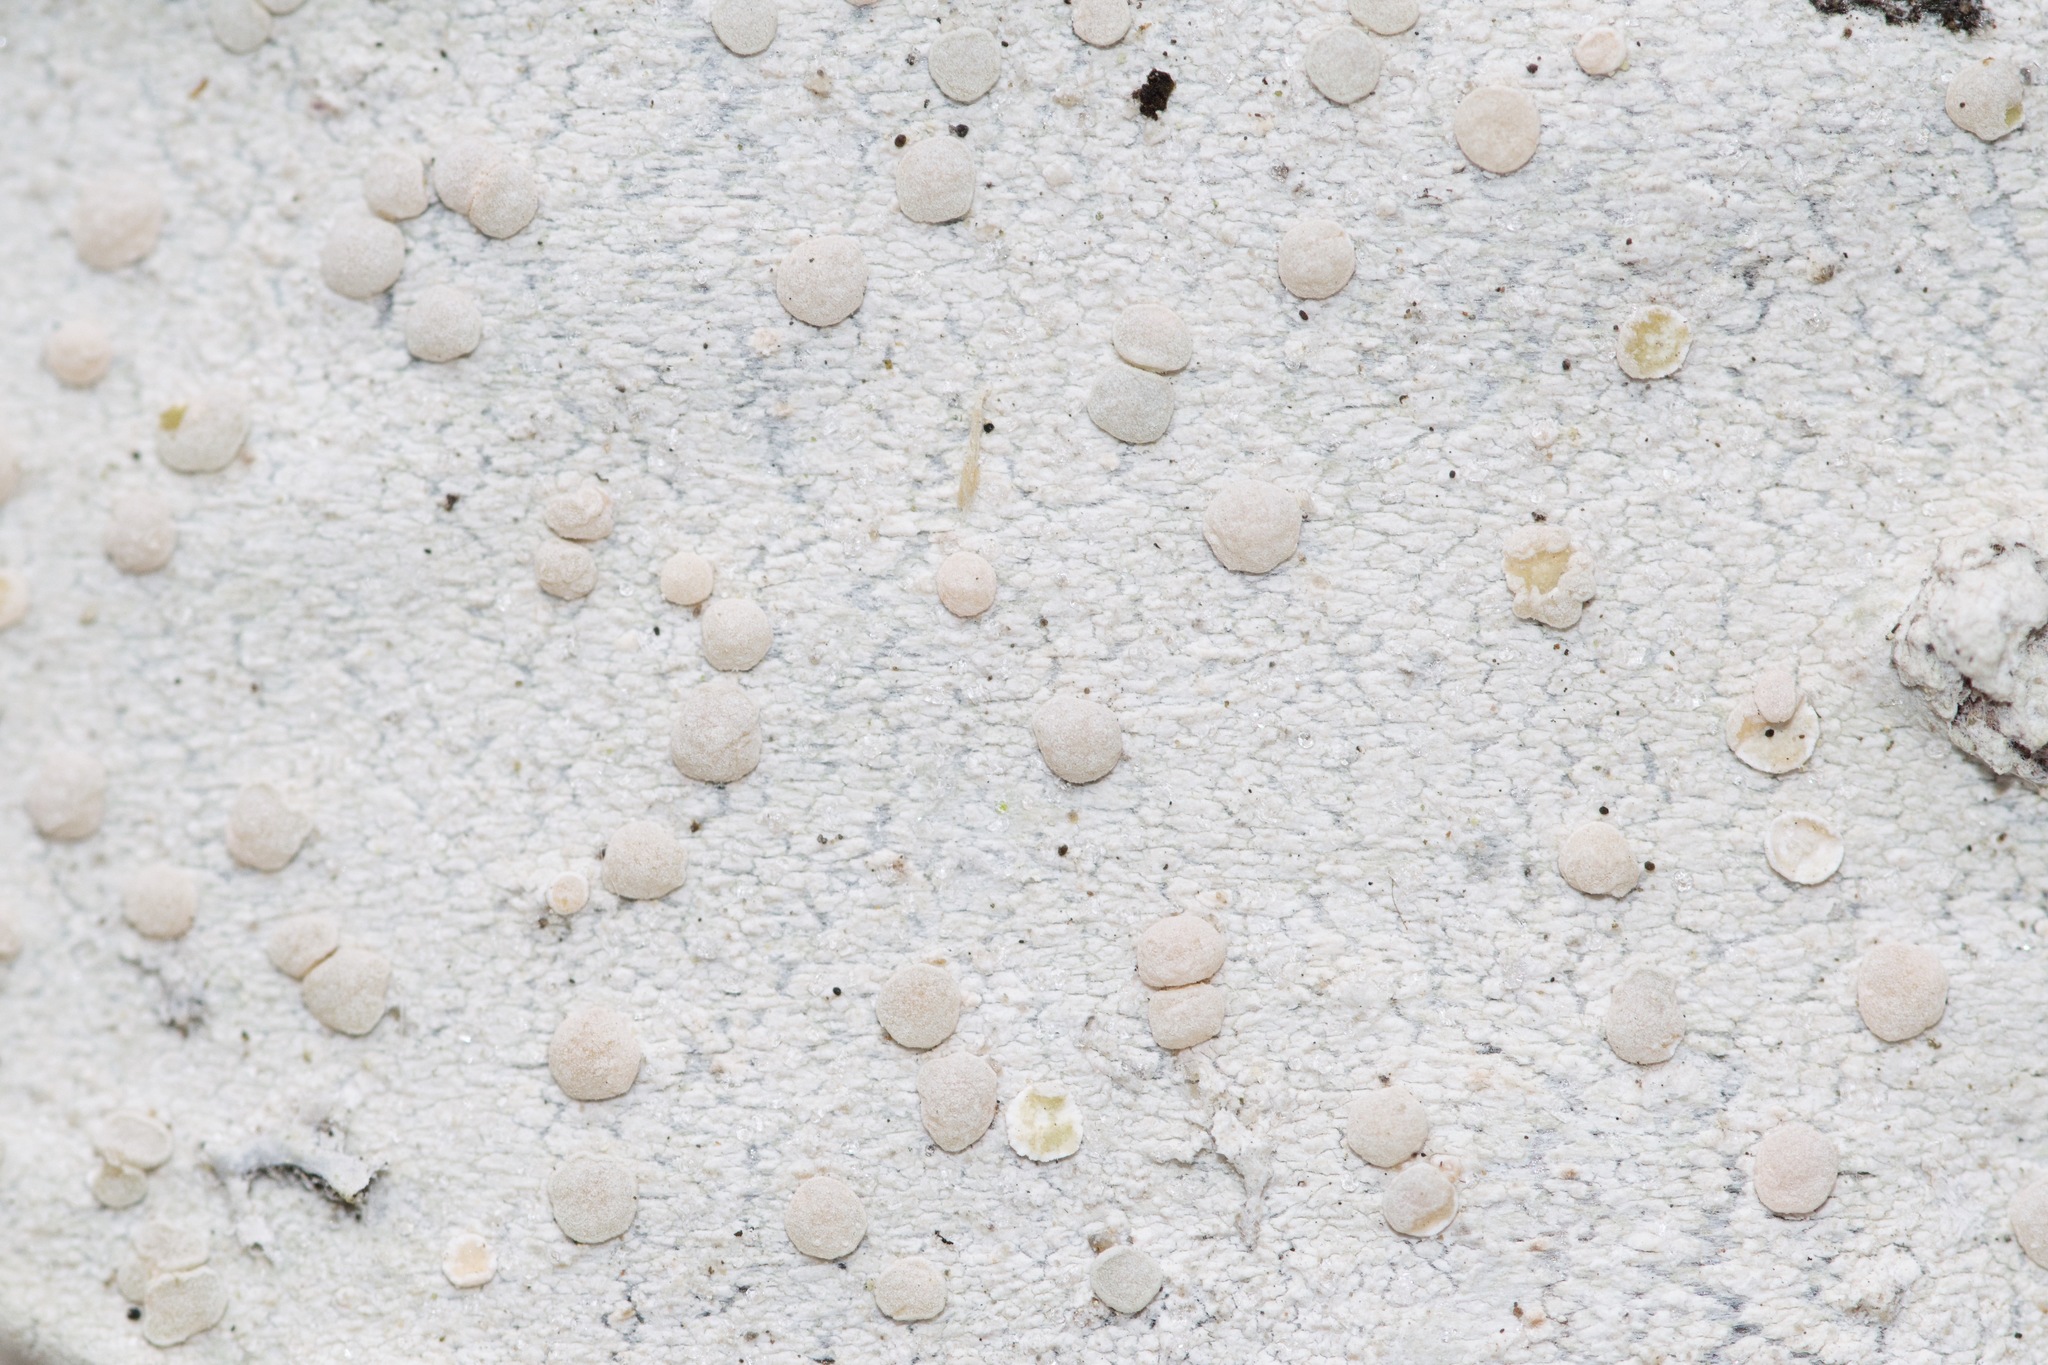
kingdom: Fungi
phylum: Ascomycota
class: Lecanoromycetes
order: Lecanorales
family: Lecanoraceae
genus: Lecanora
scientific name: Lecanora caesiorubella
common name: Frosted rim-lichen
